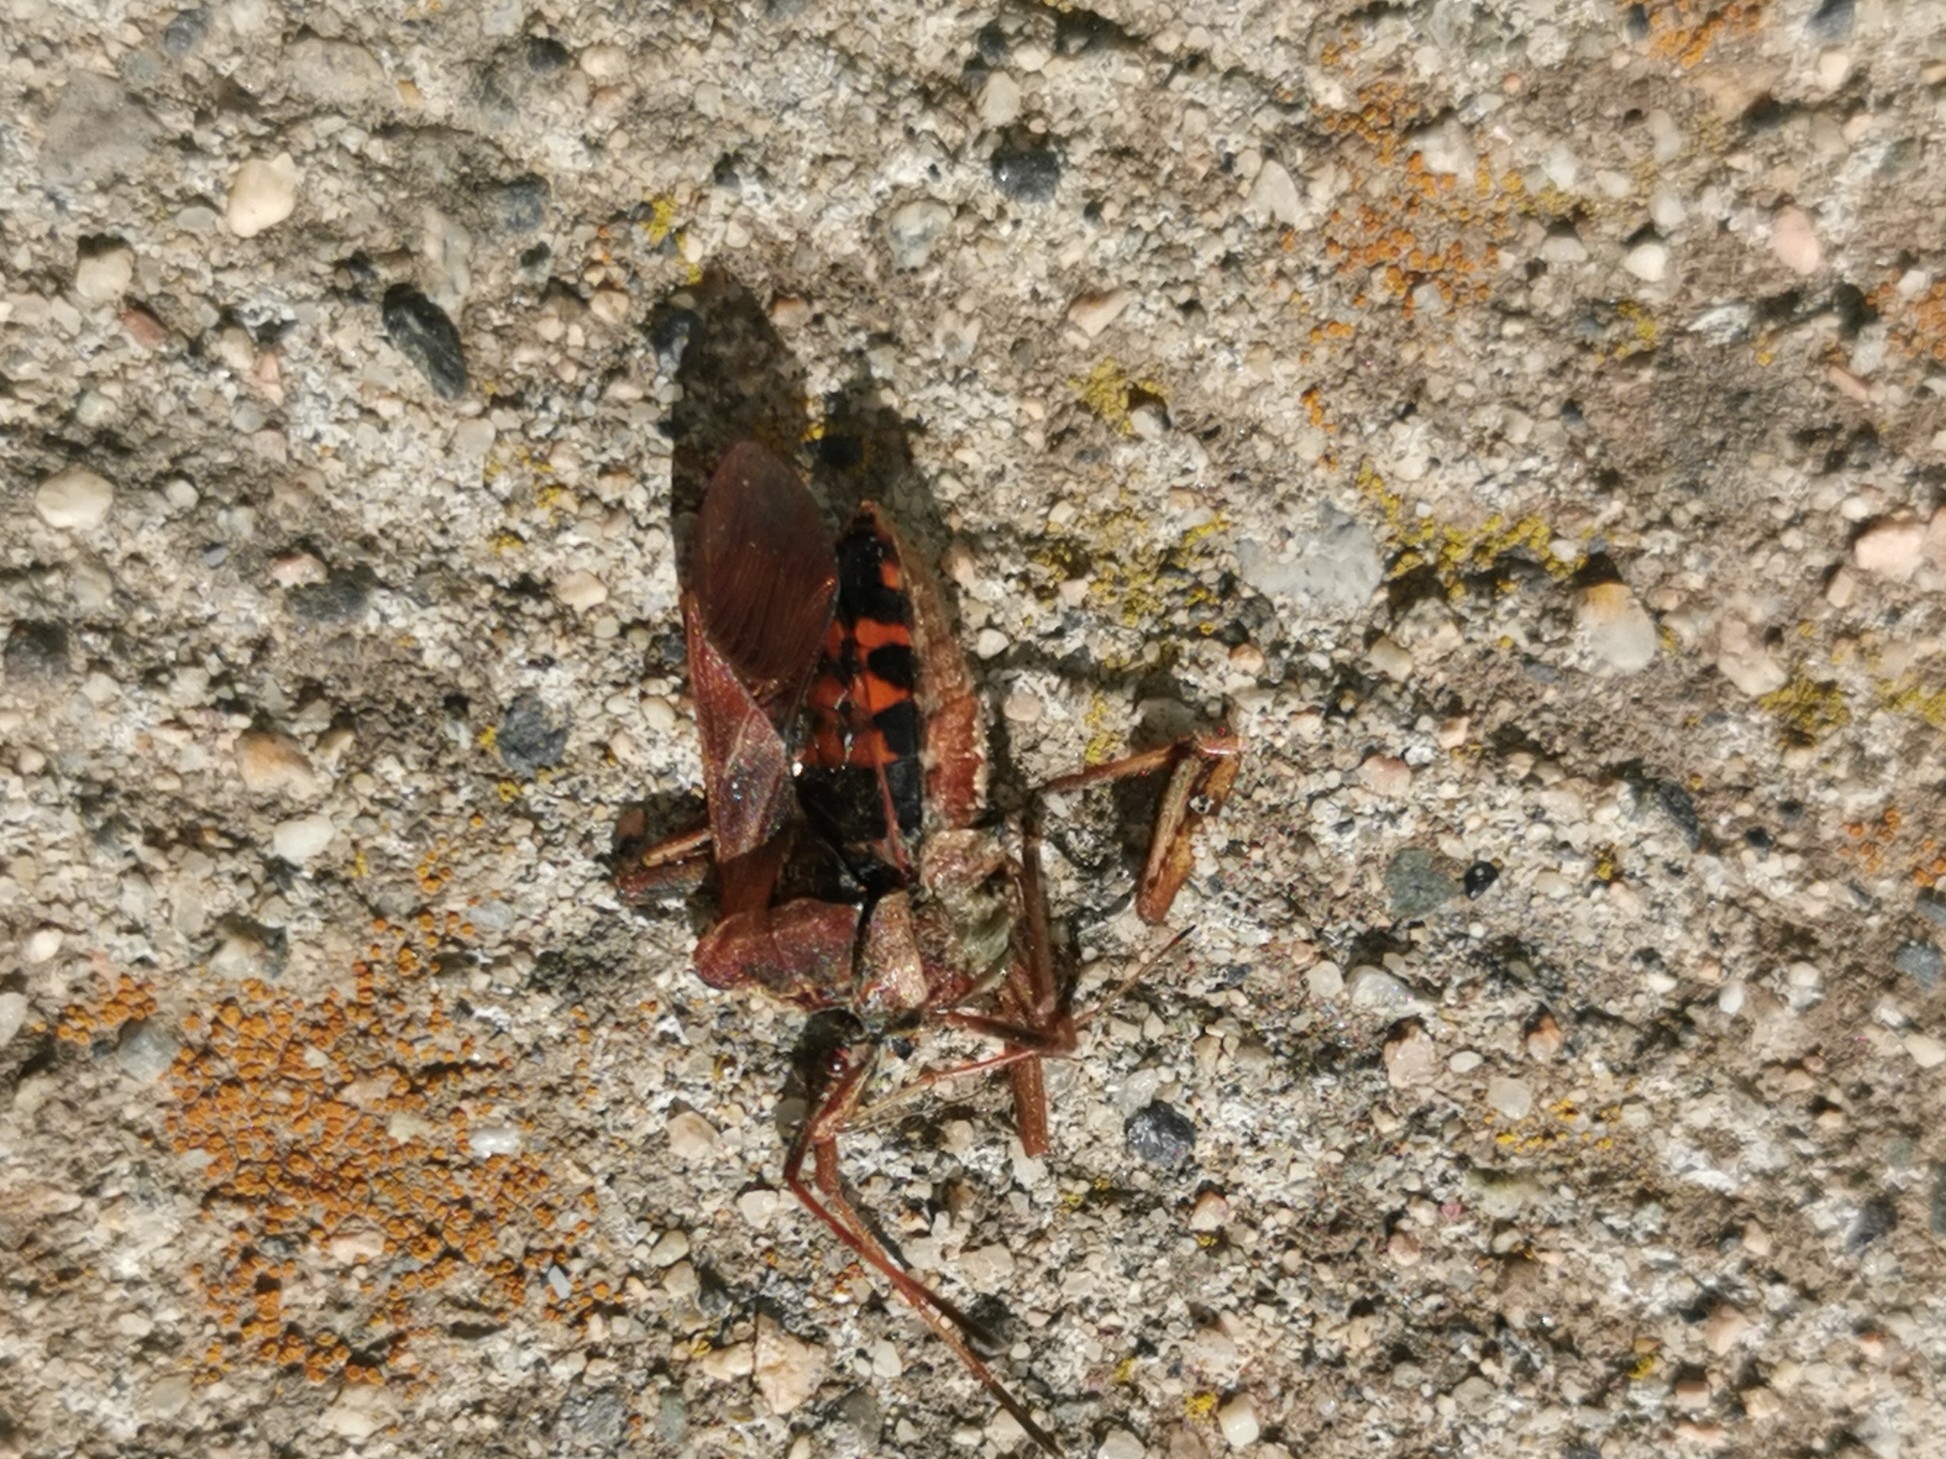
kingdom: Animalia
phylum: Arthropoda
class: Insecta
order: Hemiptera
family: Coreidae
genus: Leptoglossus
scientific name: Leptoglossus occidentalis
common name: Western conifer-seed bug
